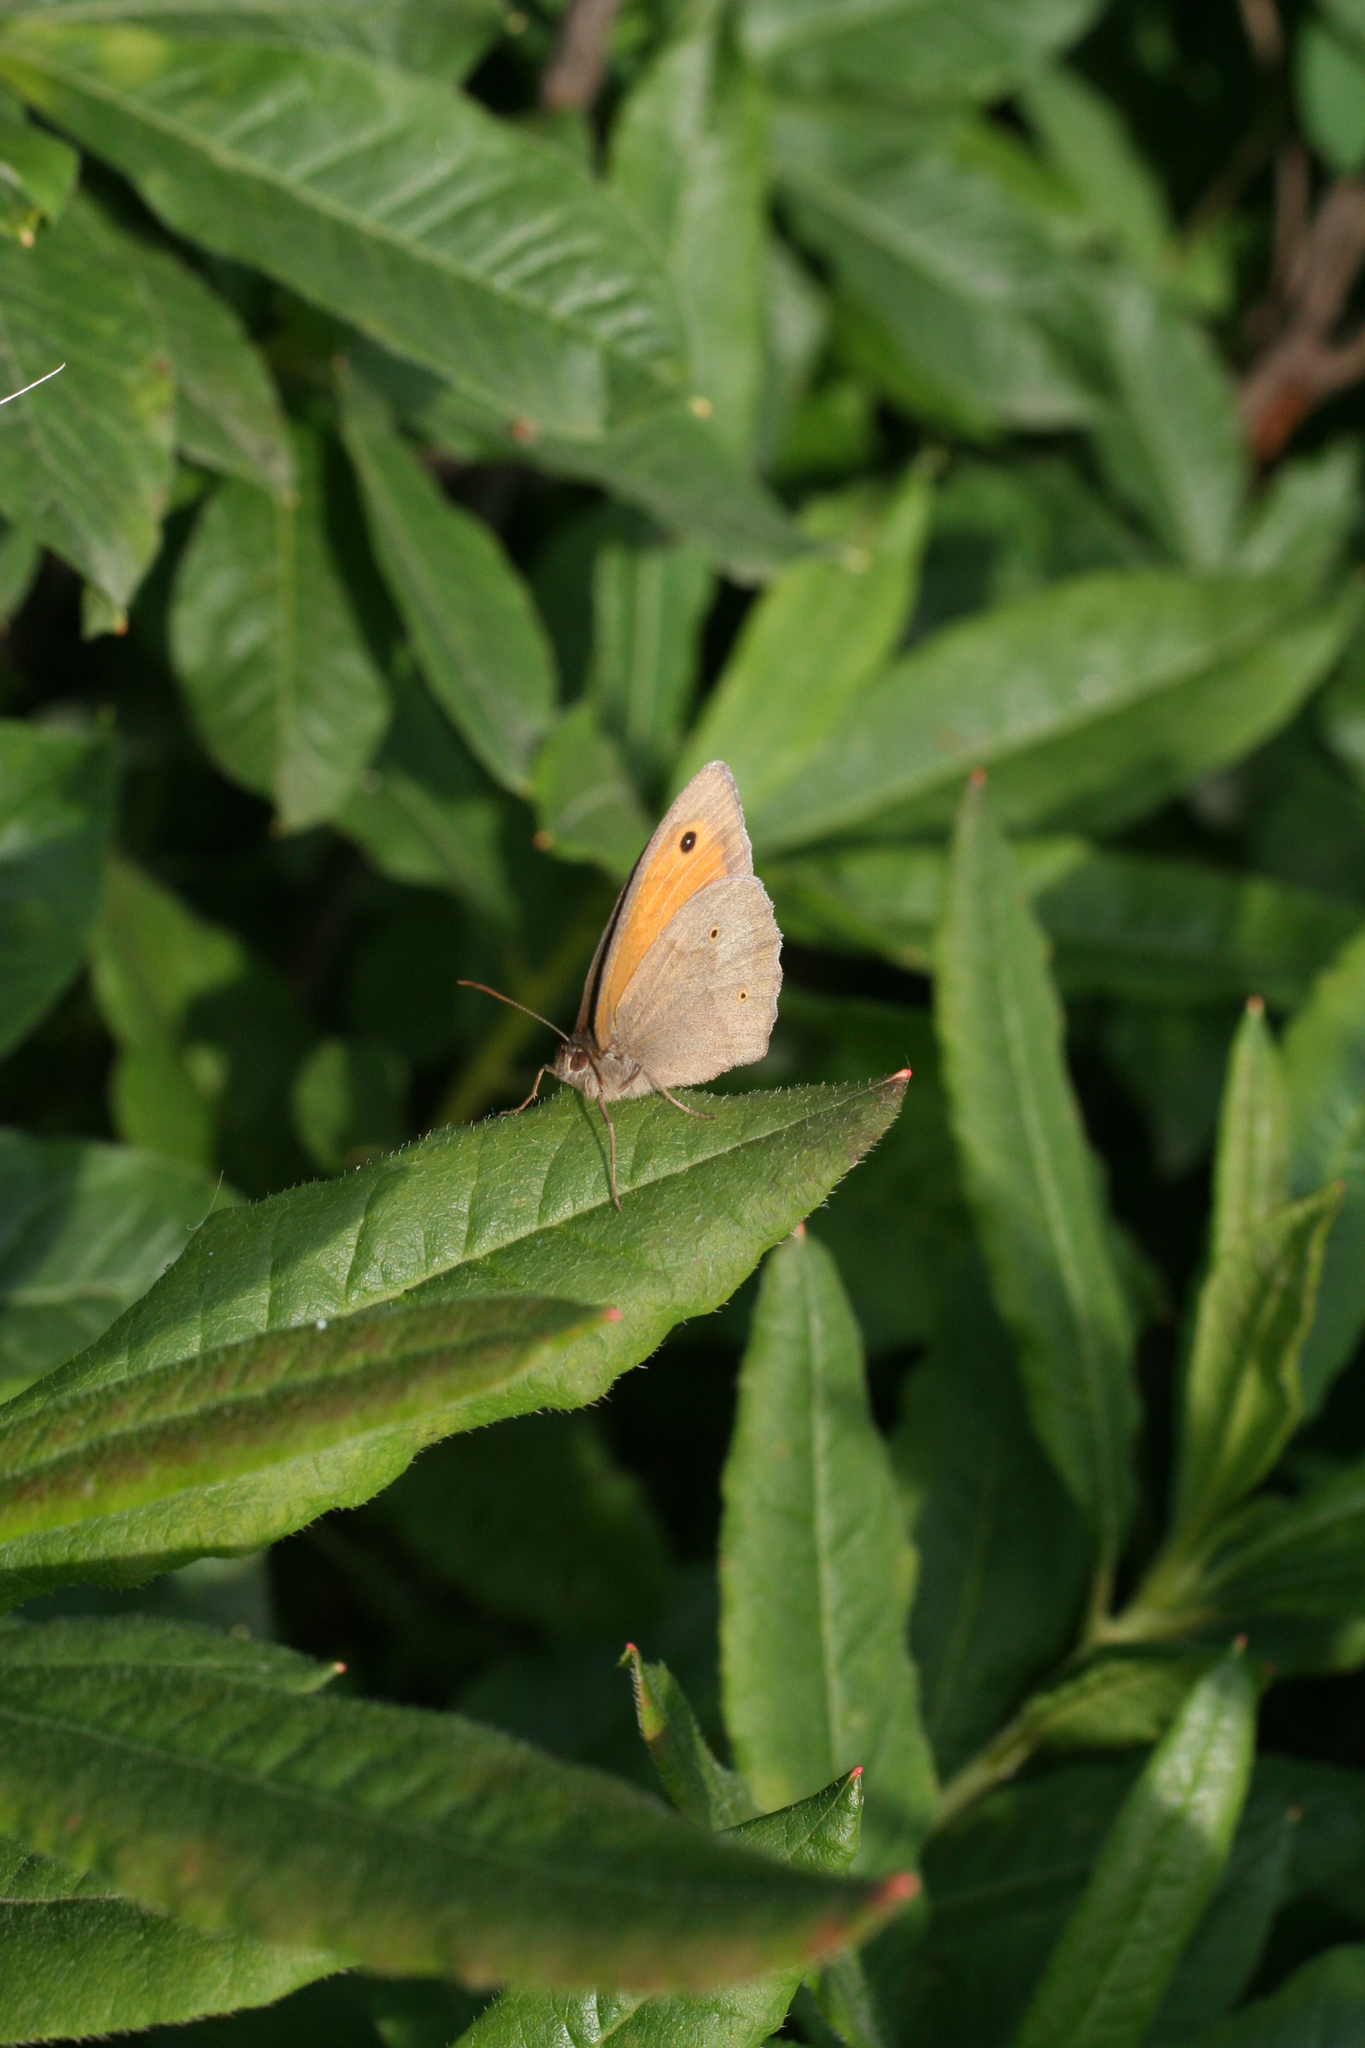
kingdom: Animalia
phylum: Arthropoda
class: Insecta
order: Lepidoptera
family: Nymphalidae
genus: Maniola
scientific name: Maniola jurtina
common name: Meadow brown
